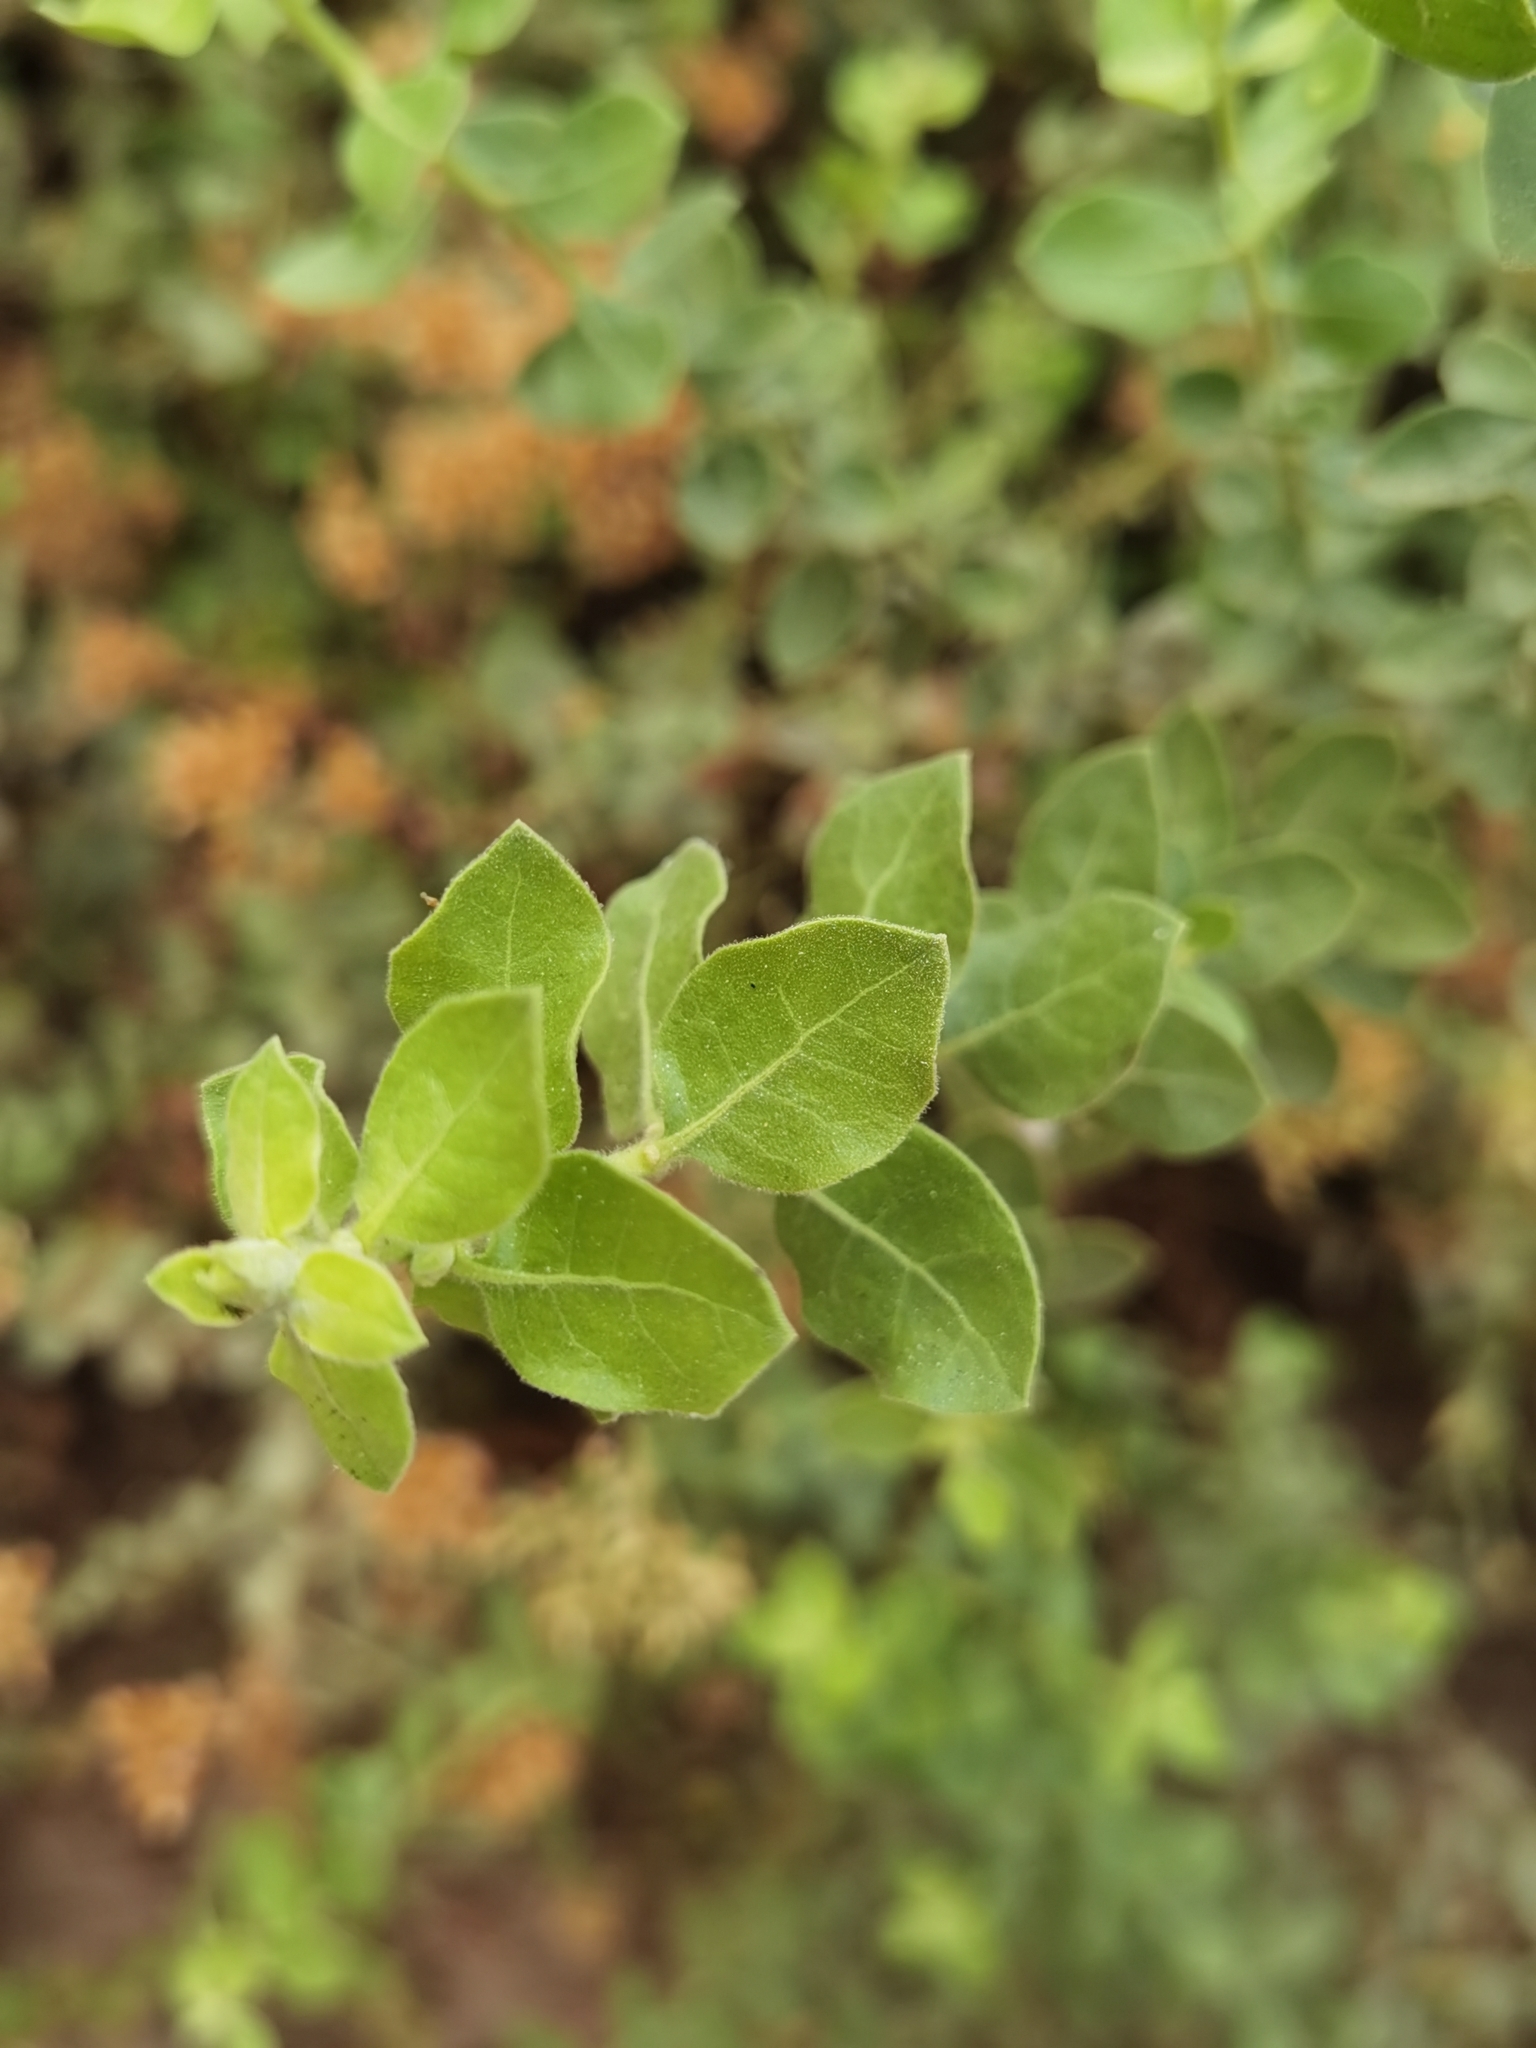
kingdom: Plantae
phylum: Tracheophyta
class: Magnoliopsida
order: Asterales
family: Asteraceae
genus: Pluchea
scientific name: Pluchea chingoyo
